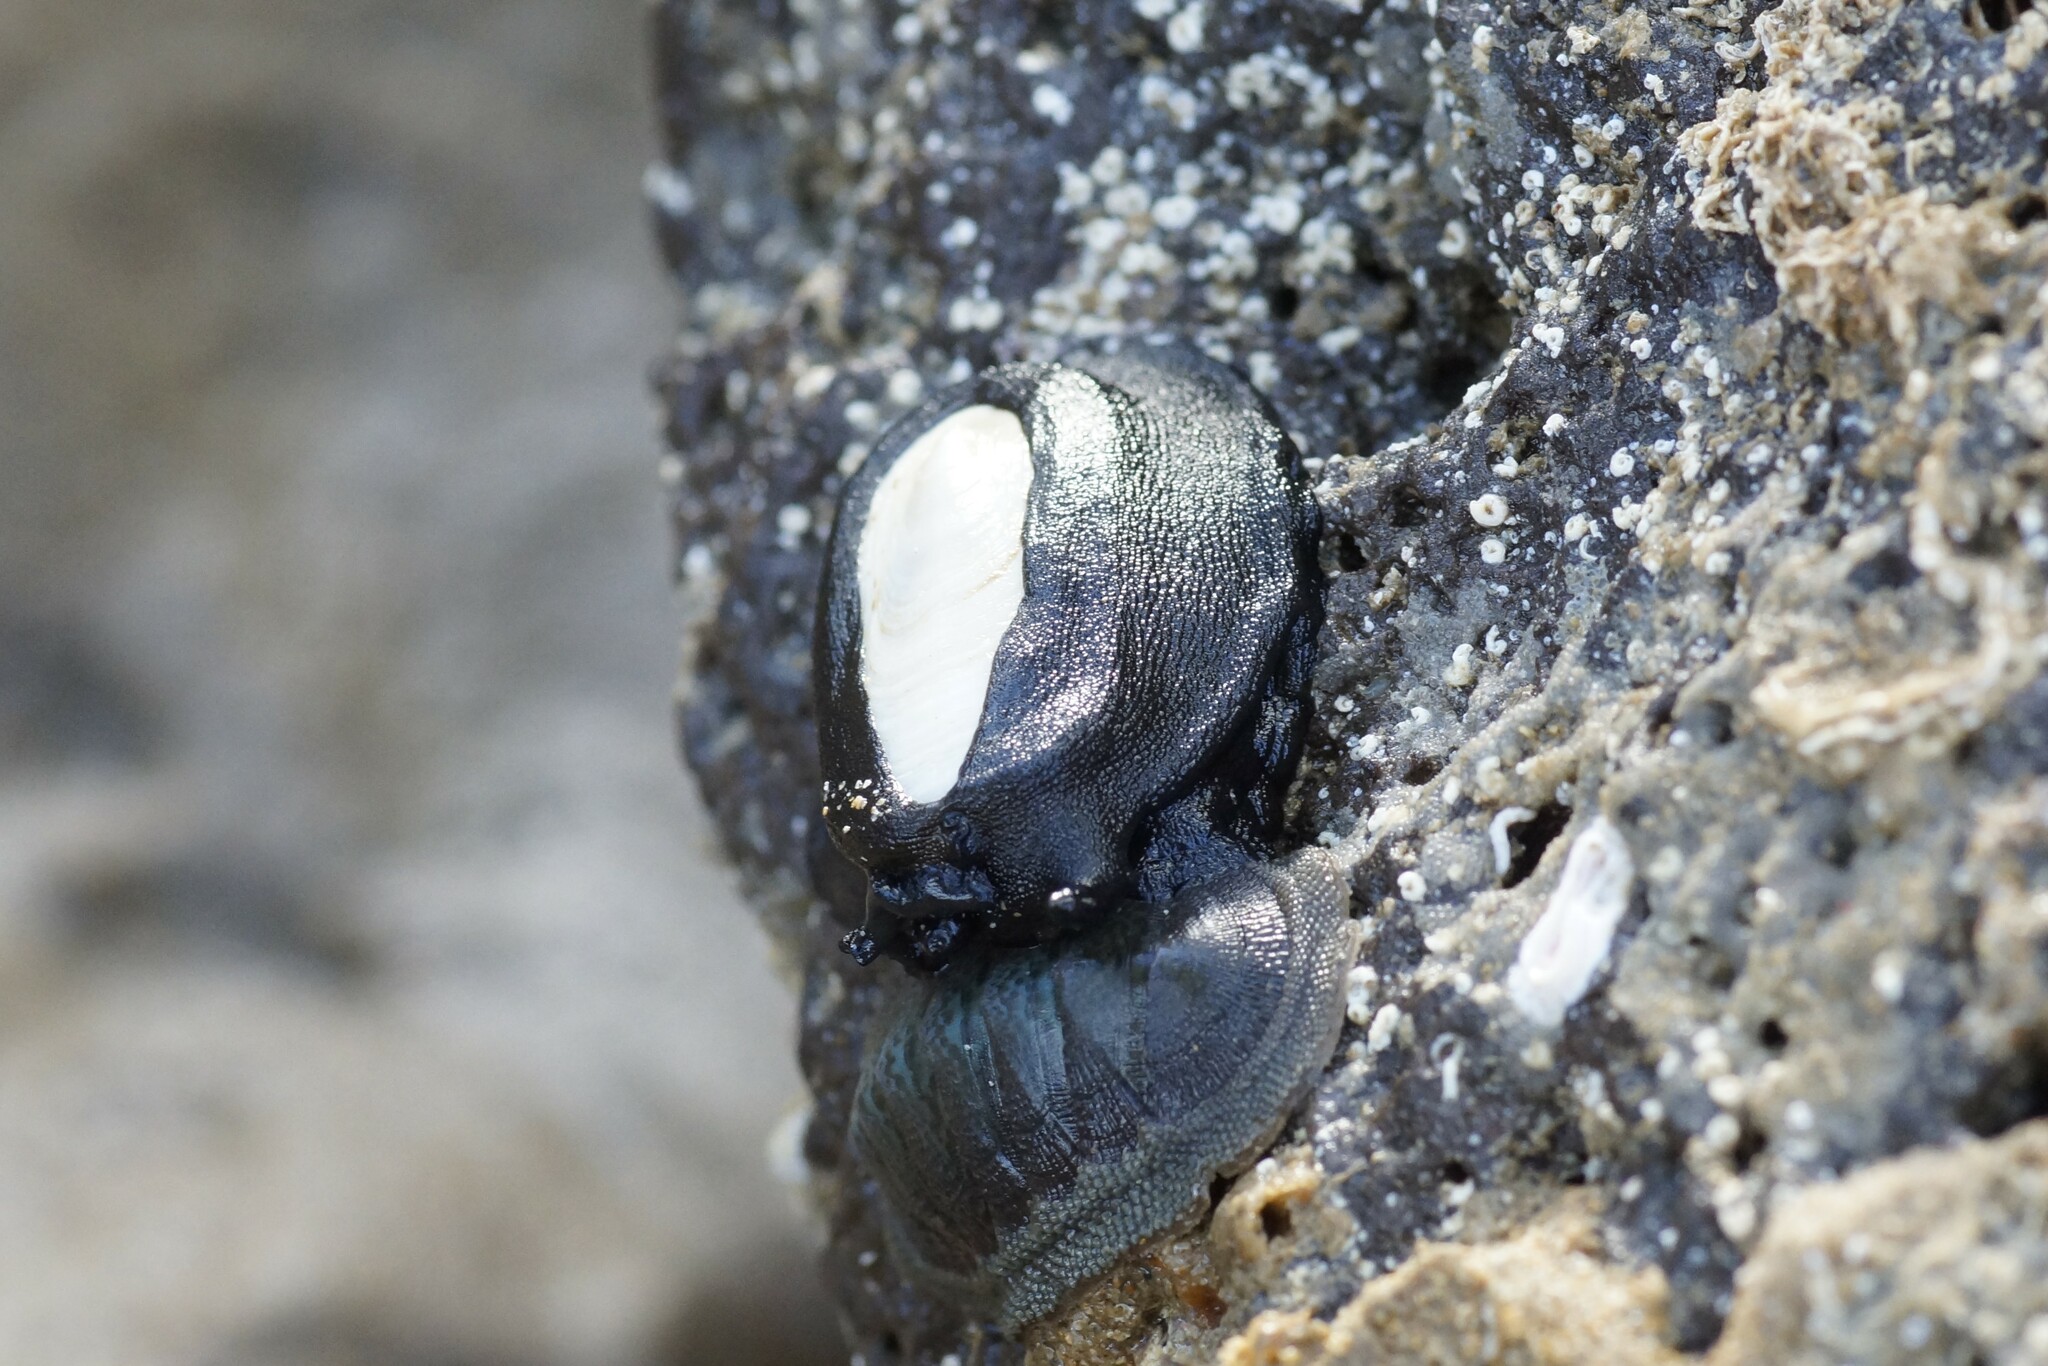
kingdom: Animalia
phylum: Mollusca
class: Gastropoda
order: Lepetellida
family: Fissurellidae
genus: Scutus
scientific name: Scutus antipodes
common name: Duckbill shell
